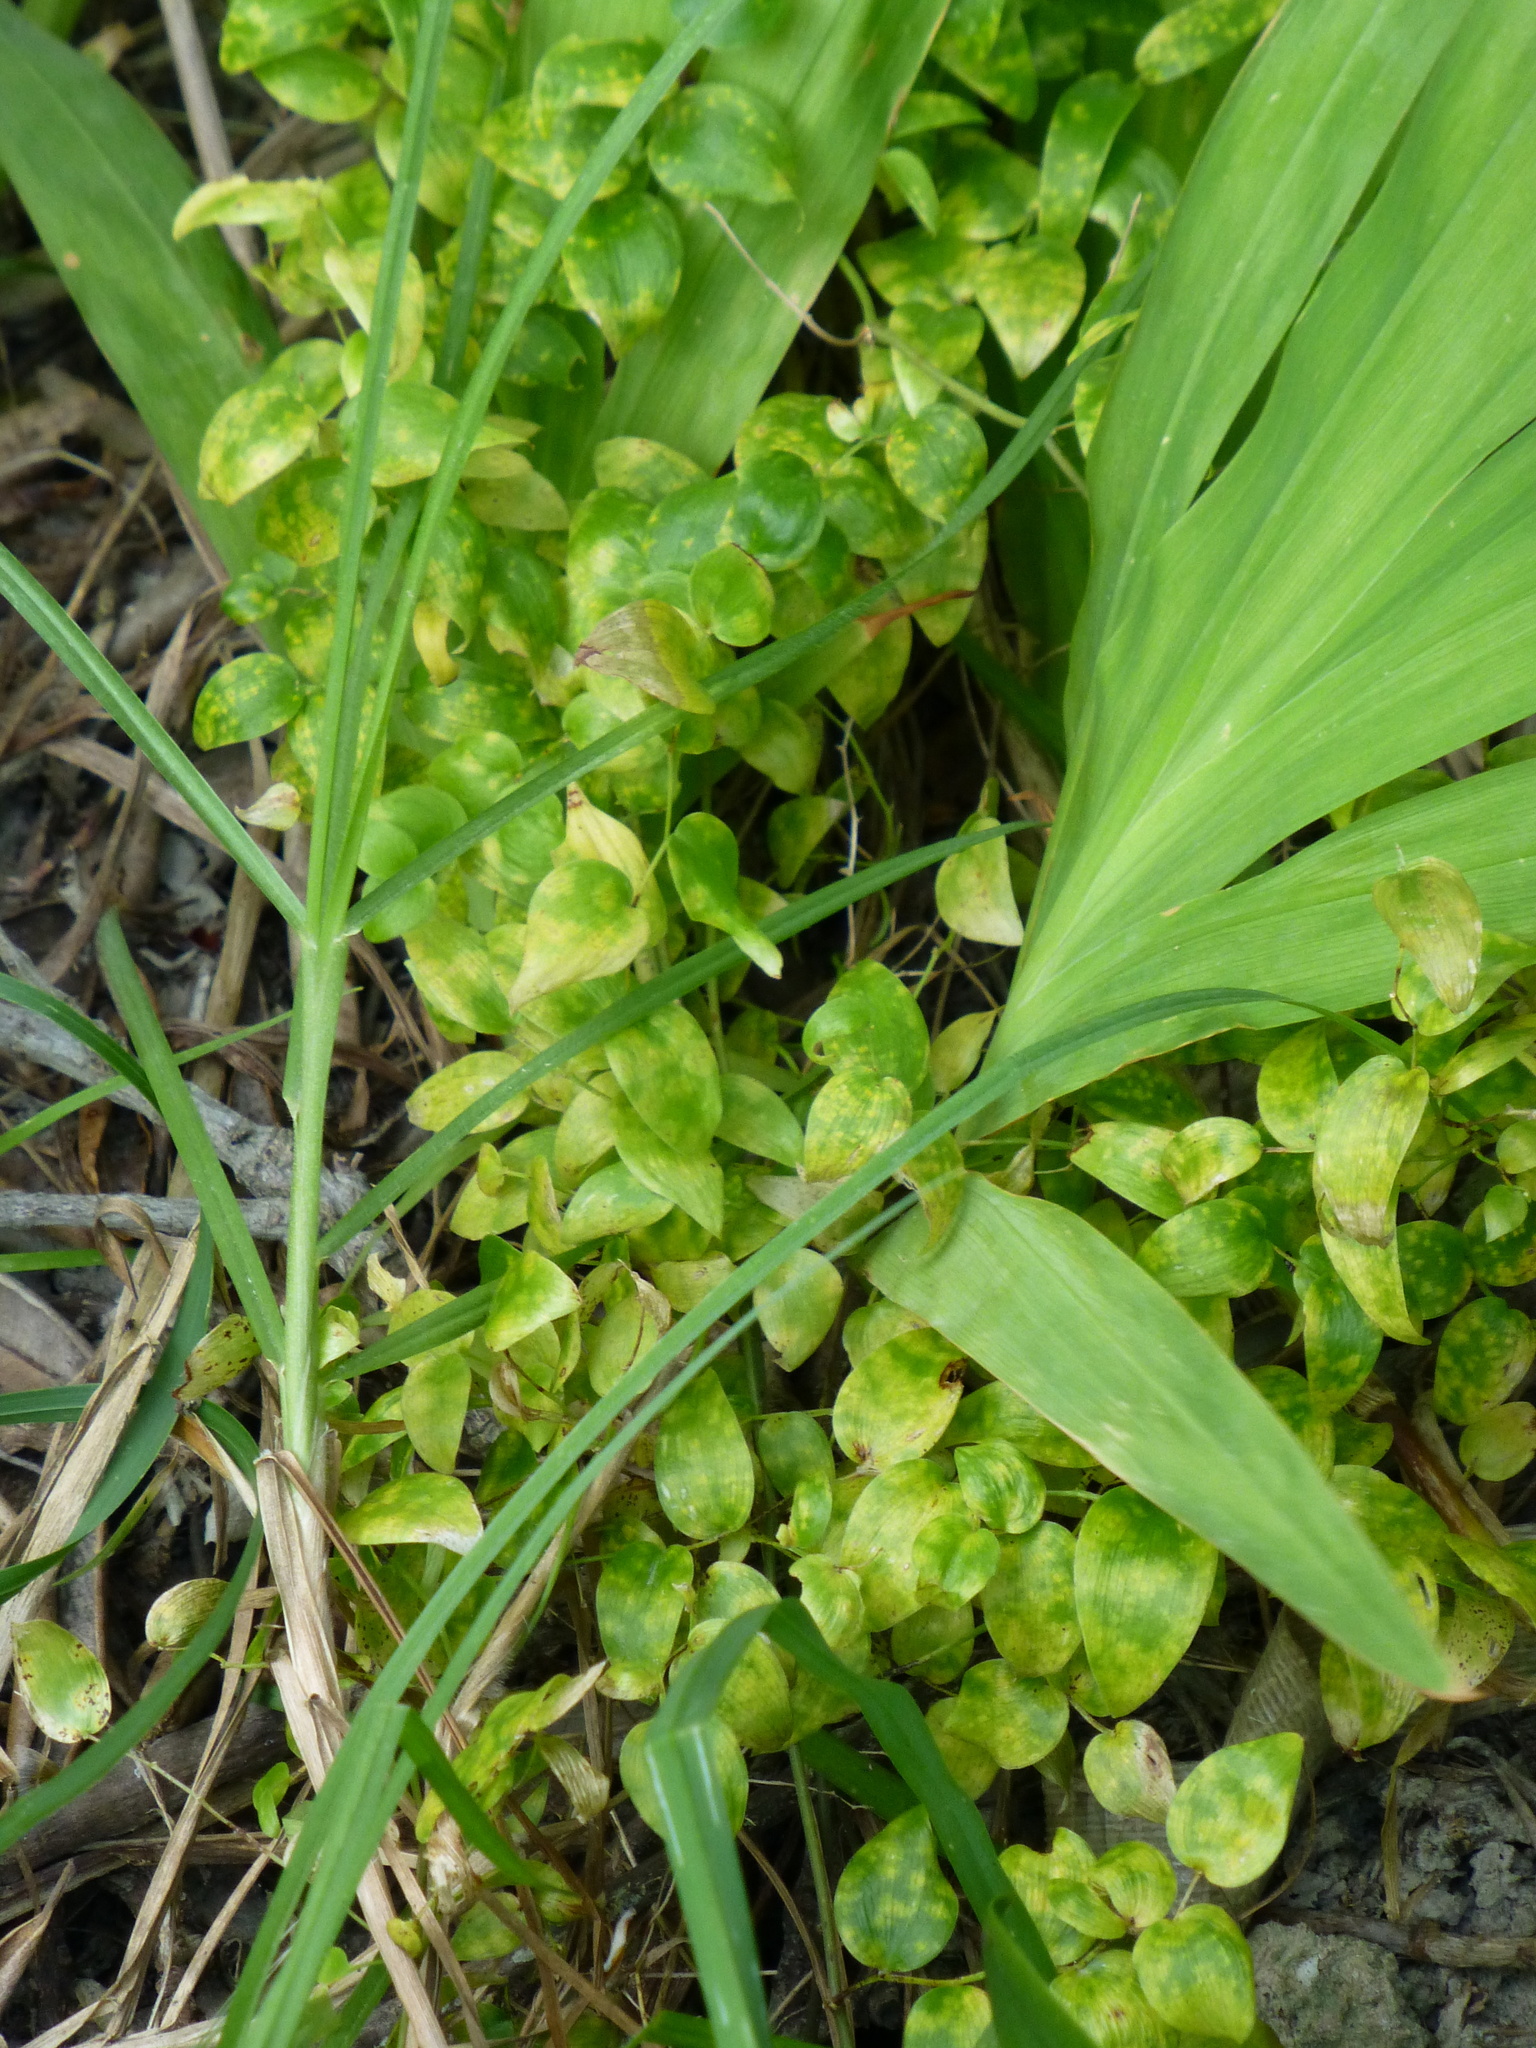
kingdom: Plantae
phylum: Tracheophyta
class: Liliopsida
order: Asparagales
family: Asparagaceae
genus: Asparagus
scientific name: Asparagus asparagoides
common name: African asparagus fern
